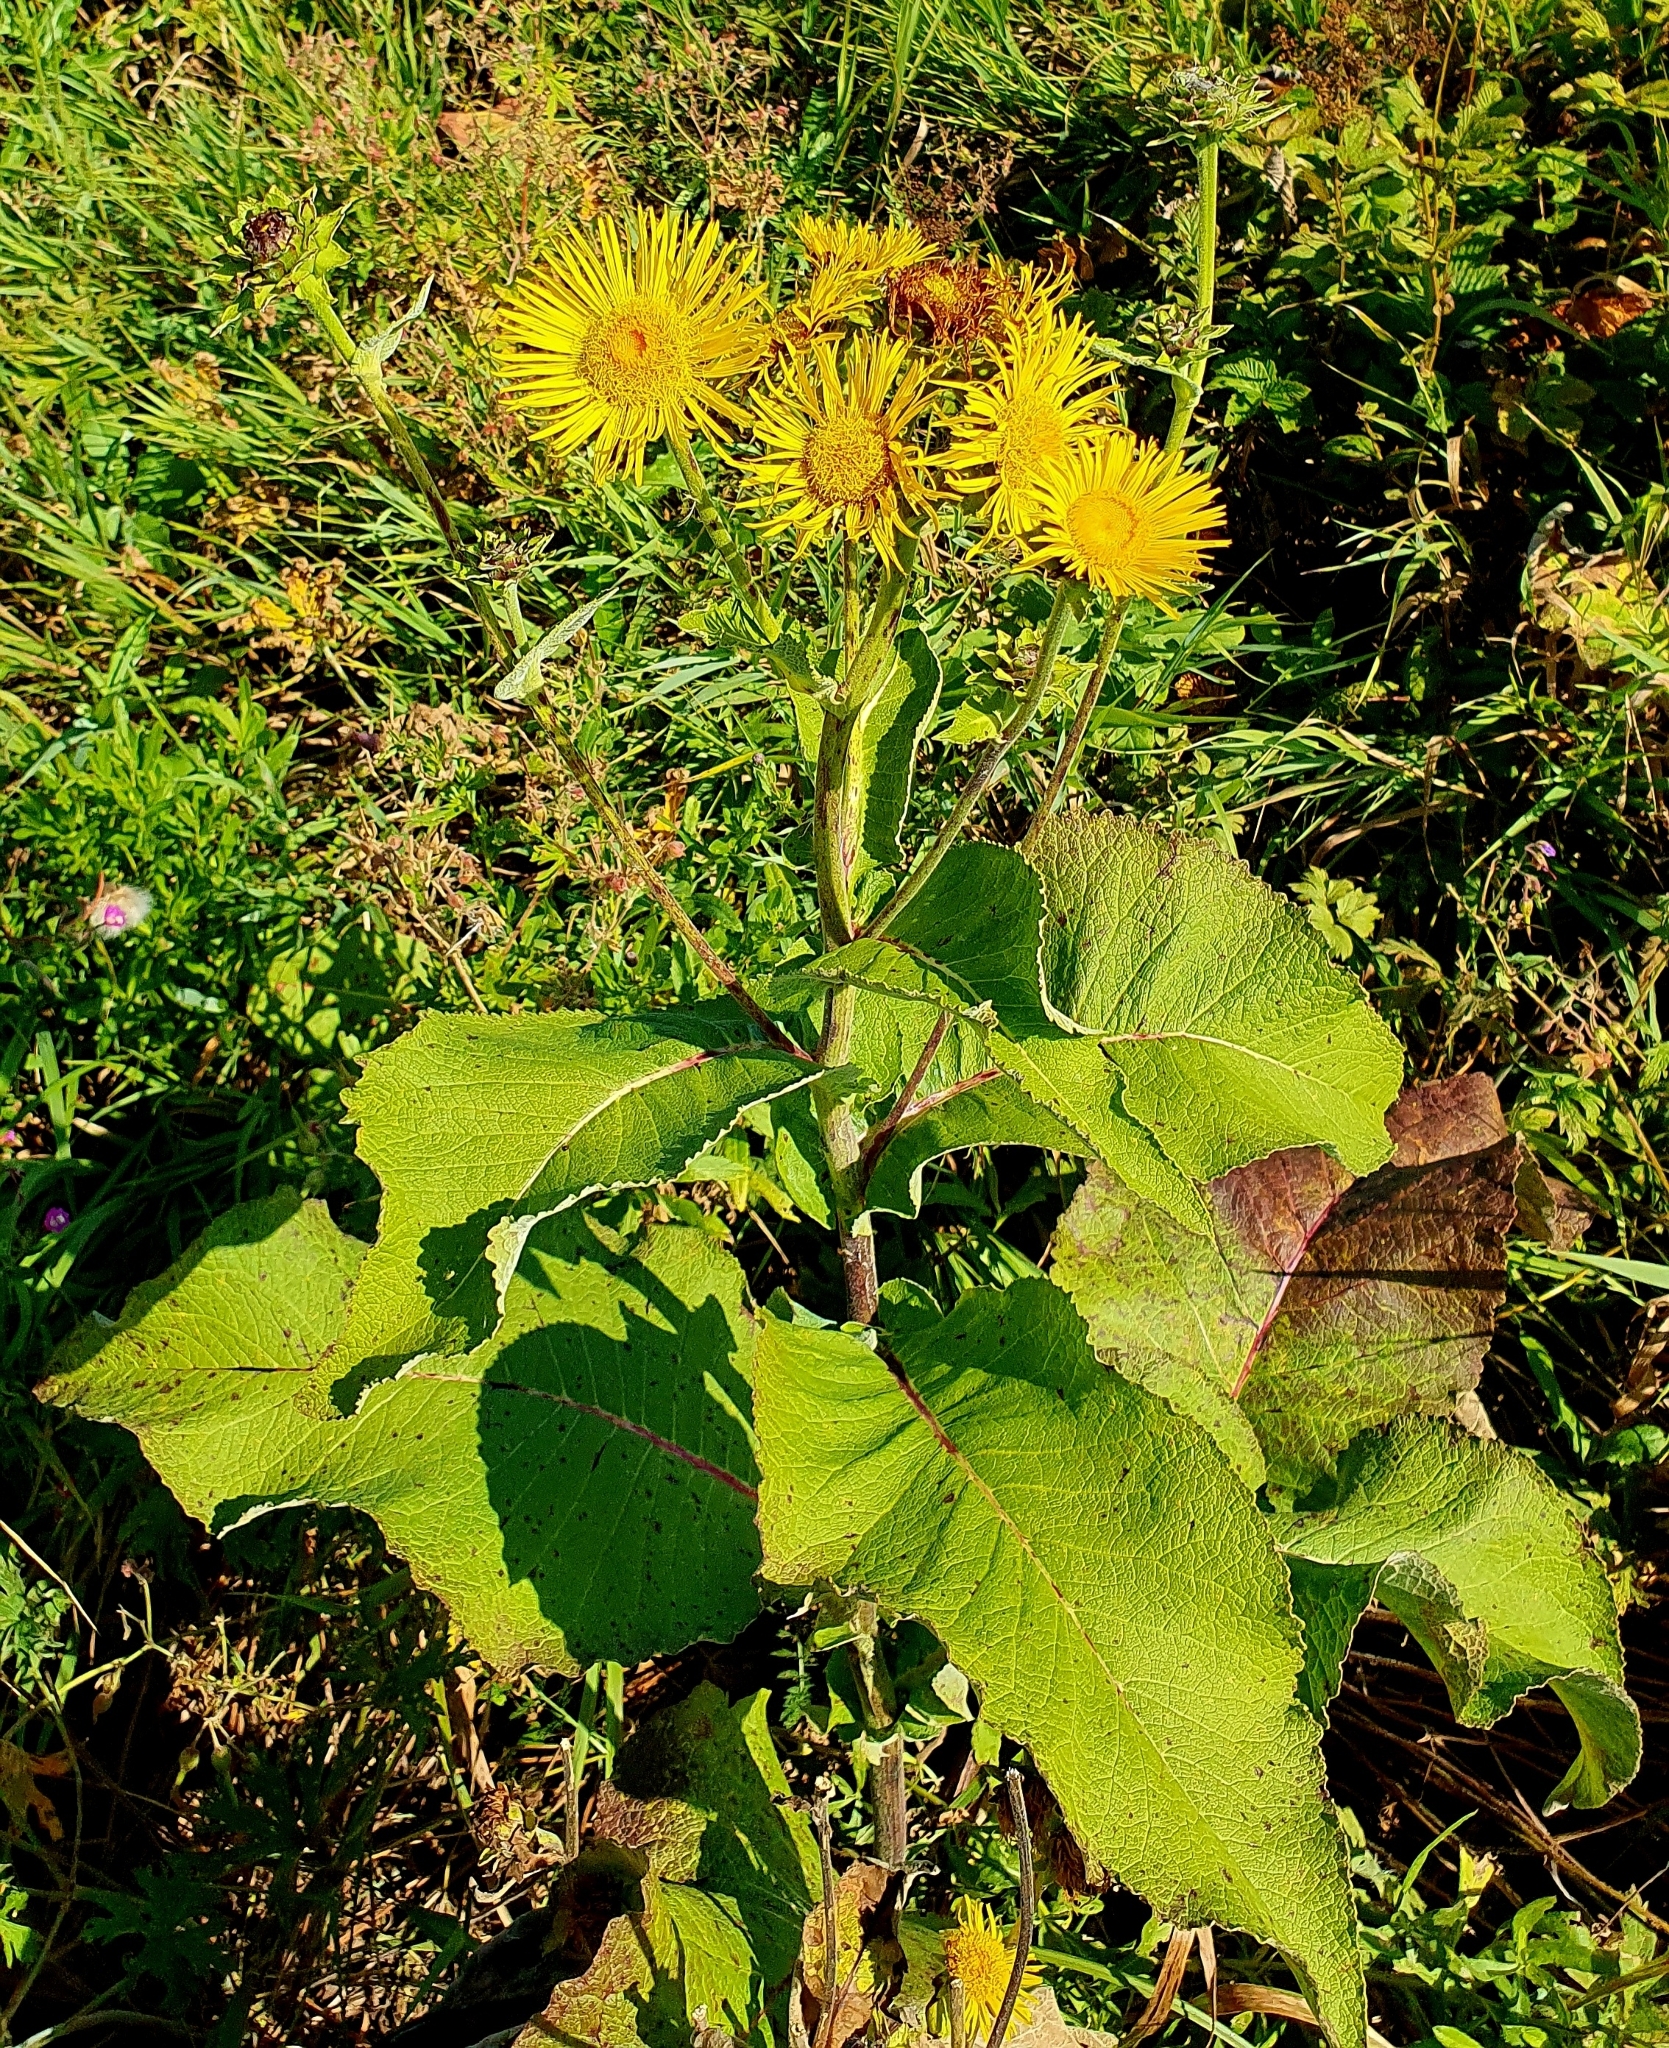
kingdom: Plantae
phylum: Tracheophyta
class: Magnoliopsida
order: Asterales
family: Asteraceae
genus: Inula
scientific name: Inula helenium
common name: Elecampane
